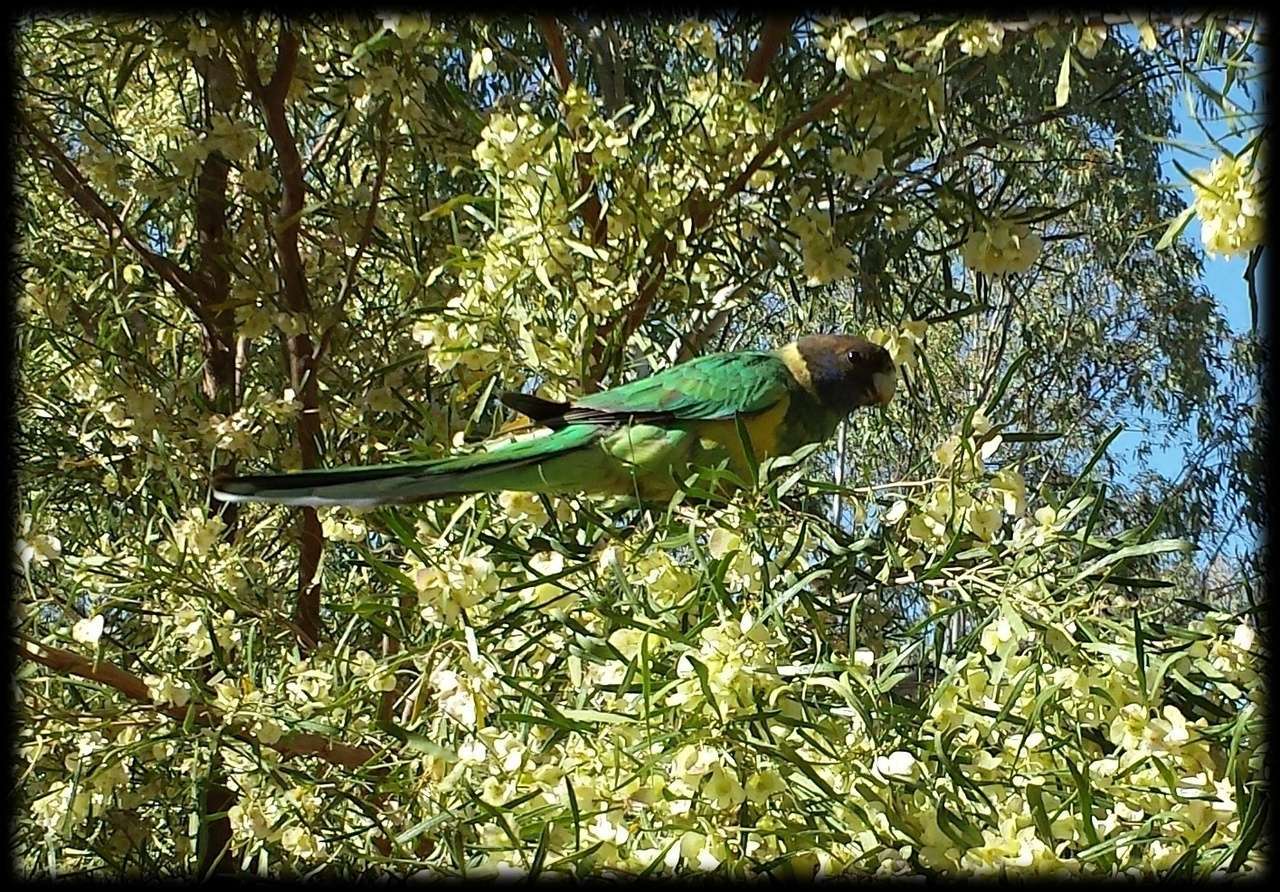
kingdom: Animalia
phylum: Chordata
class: Aves
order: Psittaciformes
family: Psittacidae
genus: Barnardius
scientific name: Barnardius zonarius
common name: Australian ringneck
